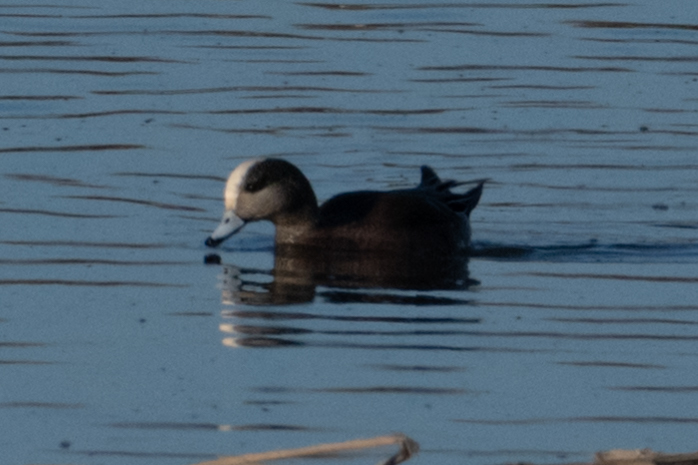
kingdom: Animalia
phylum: Chordata
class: Aves
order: Anseriformes
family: Anatidae
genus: Mareca
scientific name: Mareca americana
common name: American wigeon
